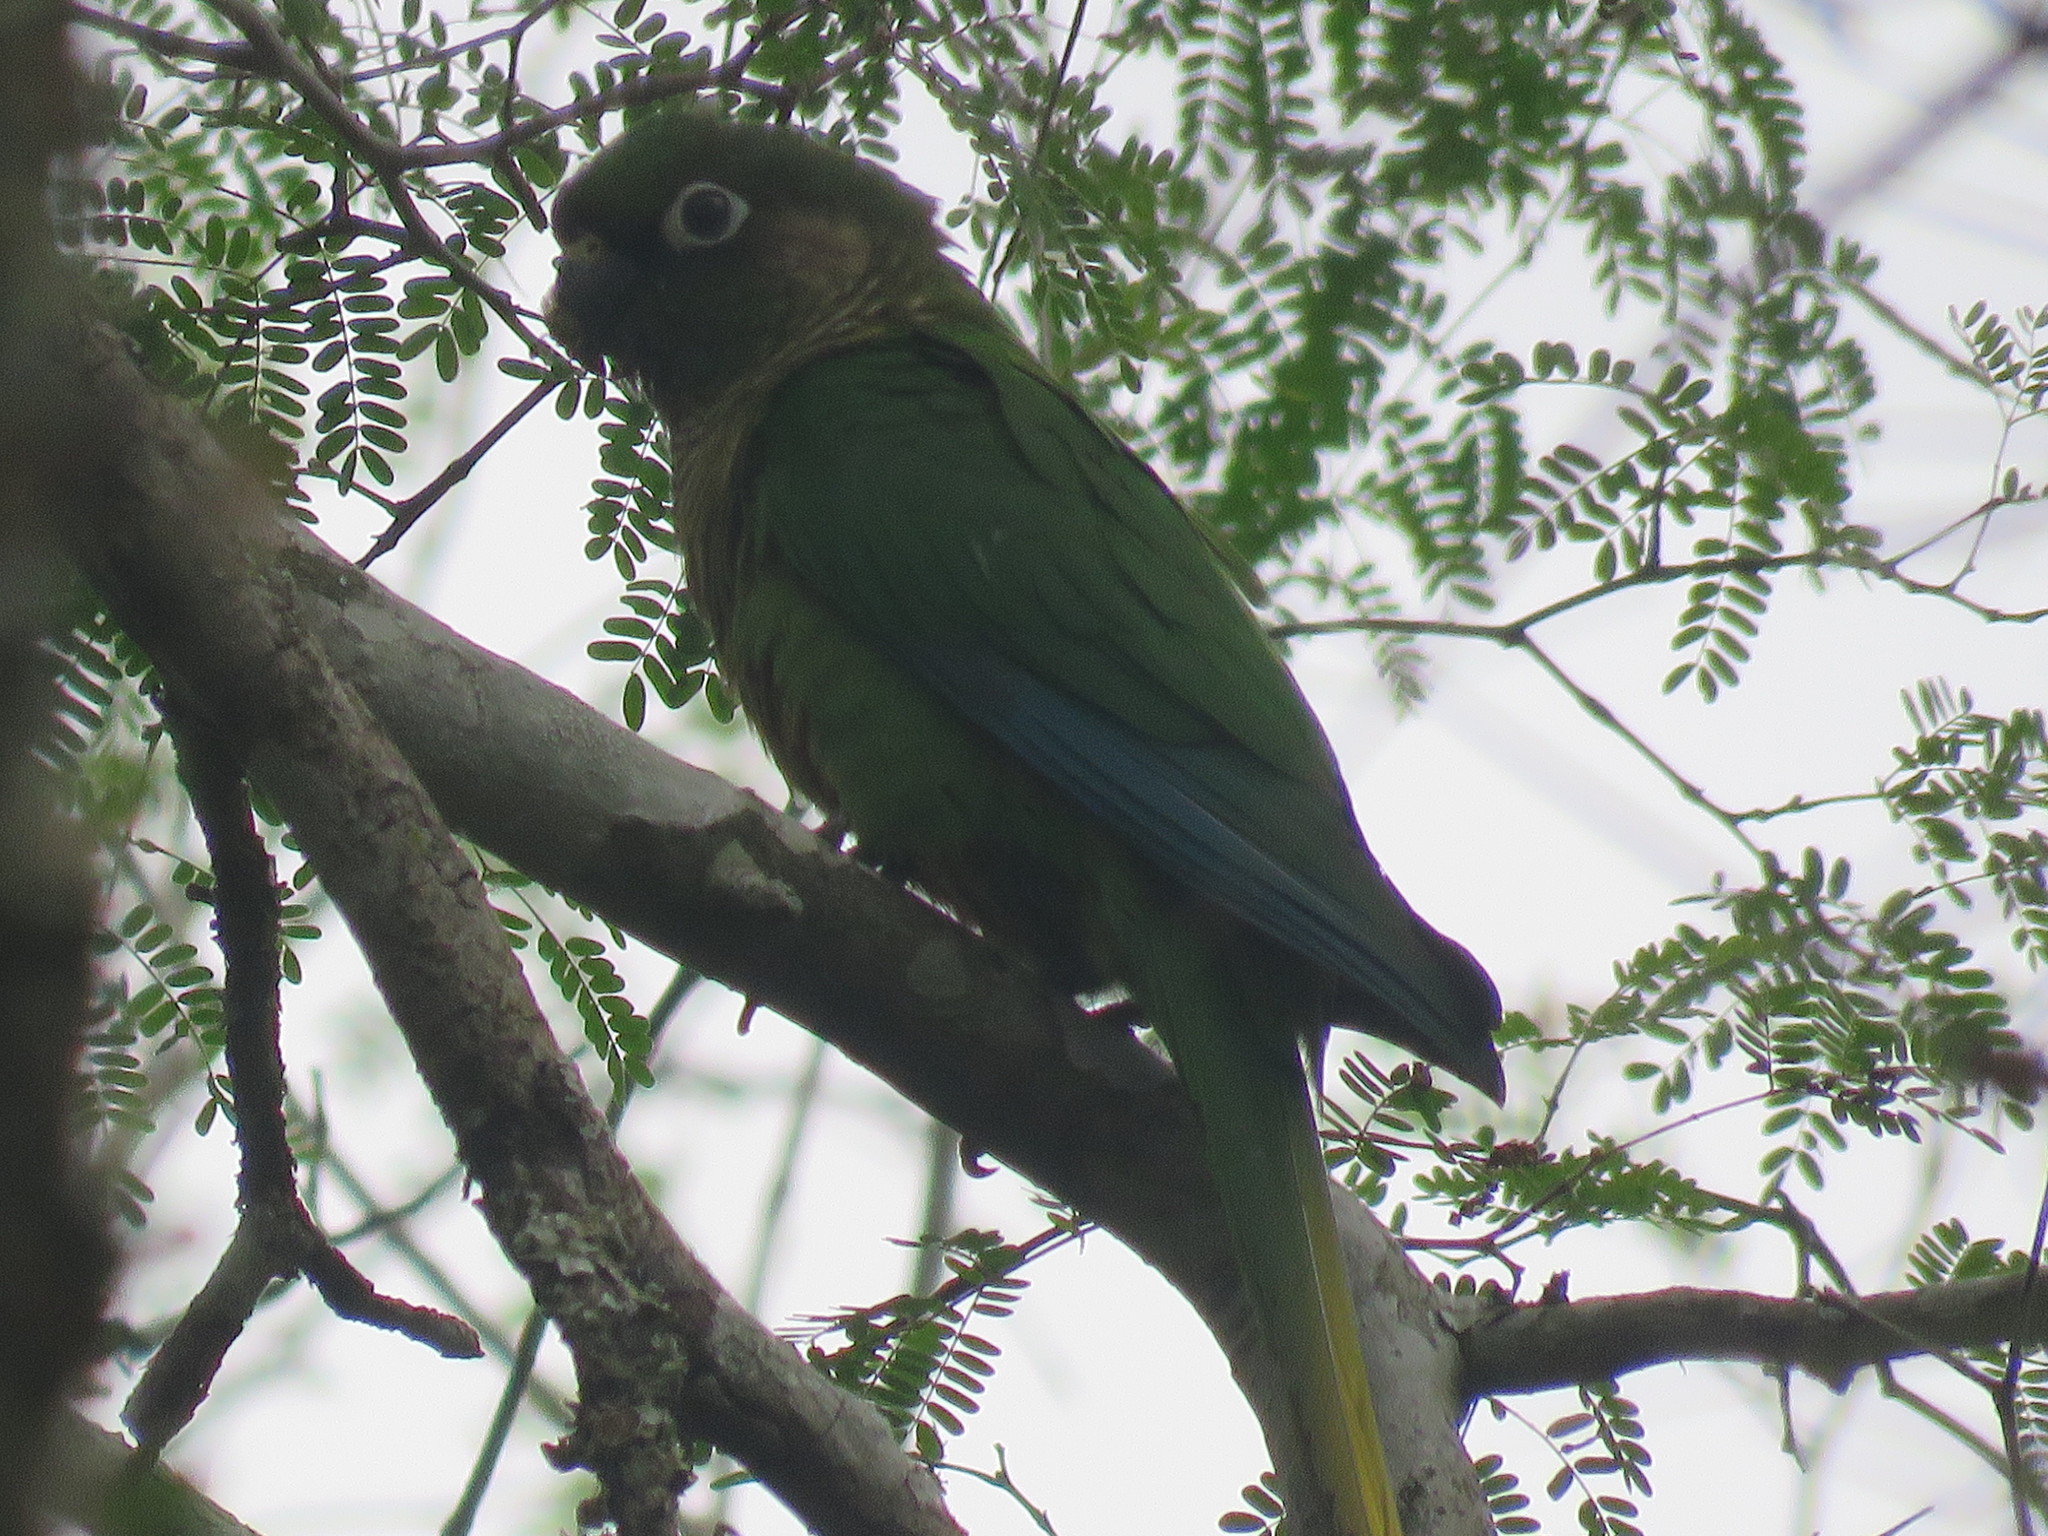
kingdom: Animalia
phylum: Chordata
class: Aves
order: Psittaciformes
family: Psittacidae
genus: Pyrrhura
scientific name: Pyrrhura frontalis
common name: Maroon-bellied parakeet
